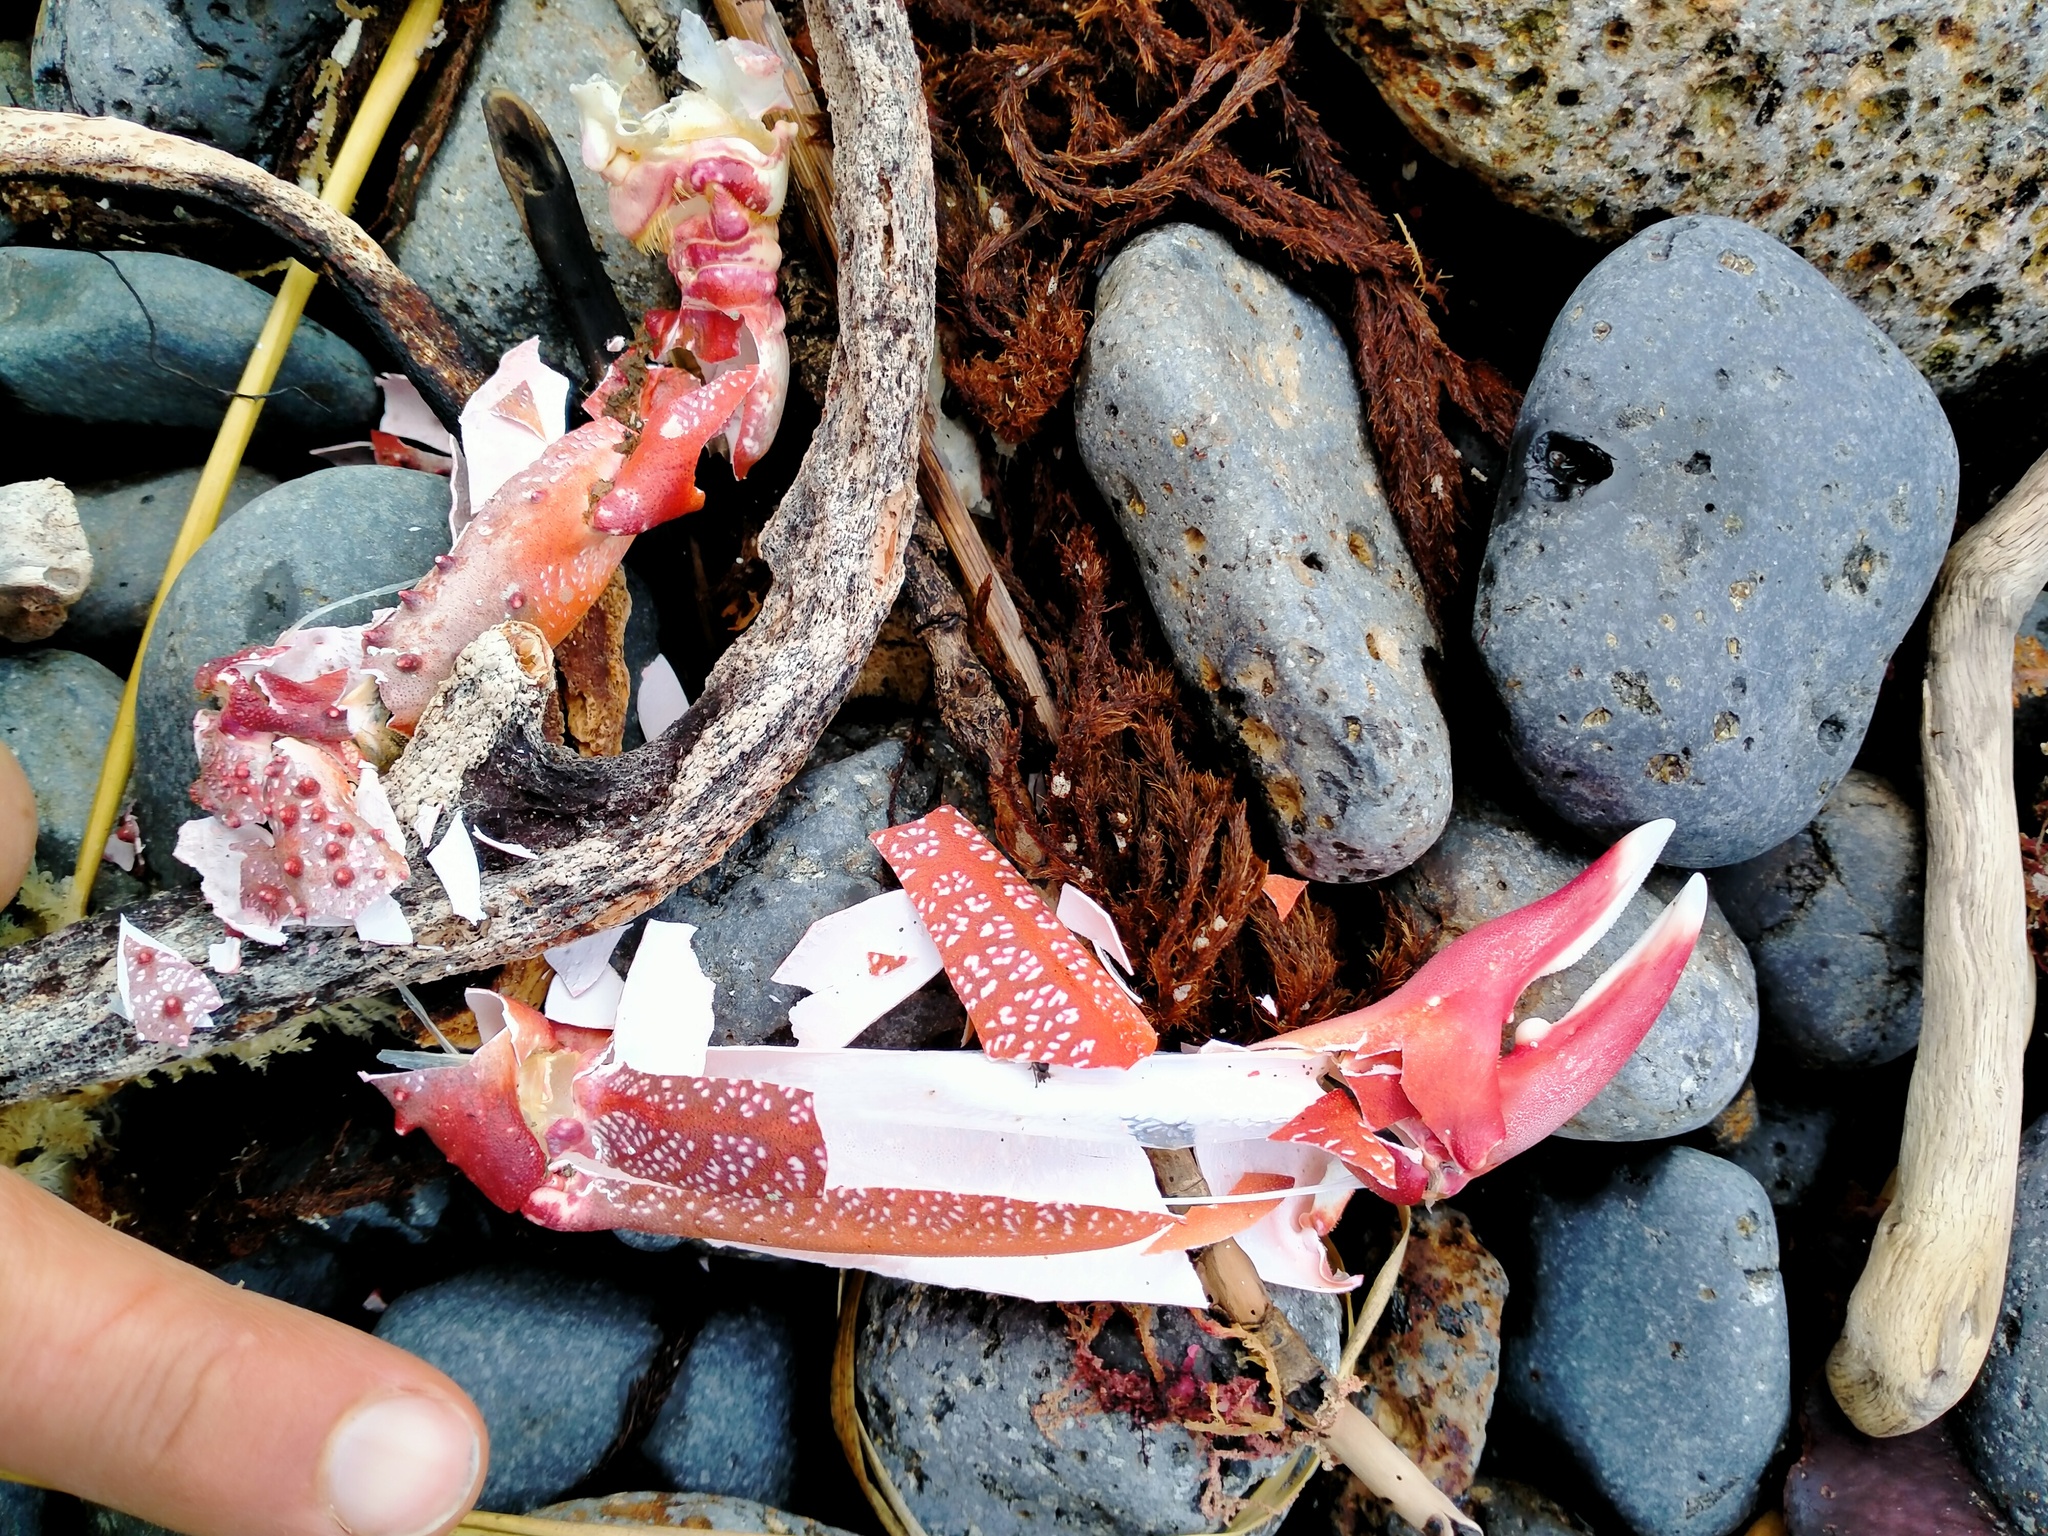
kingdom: Animalia
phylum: Arthropoda
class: Malacostraca
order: Decapoda
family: Majidae
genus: Leptomithrax
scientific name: Leptomithrax australis
